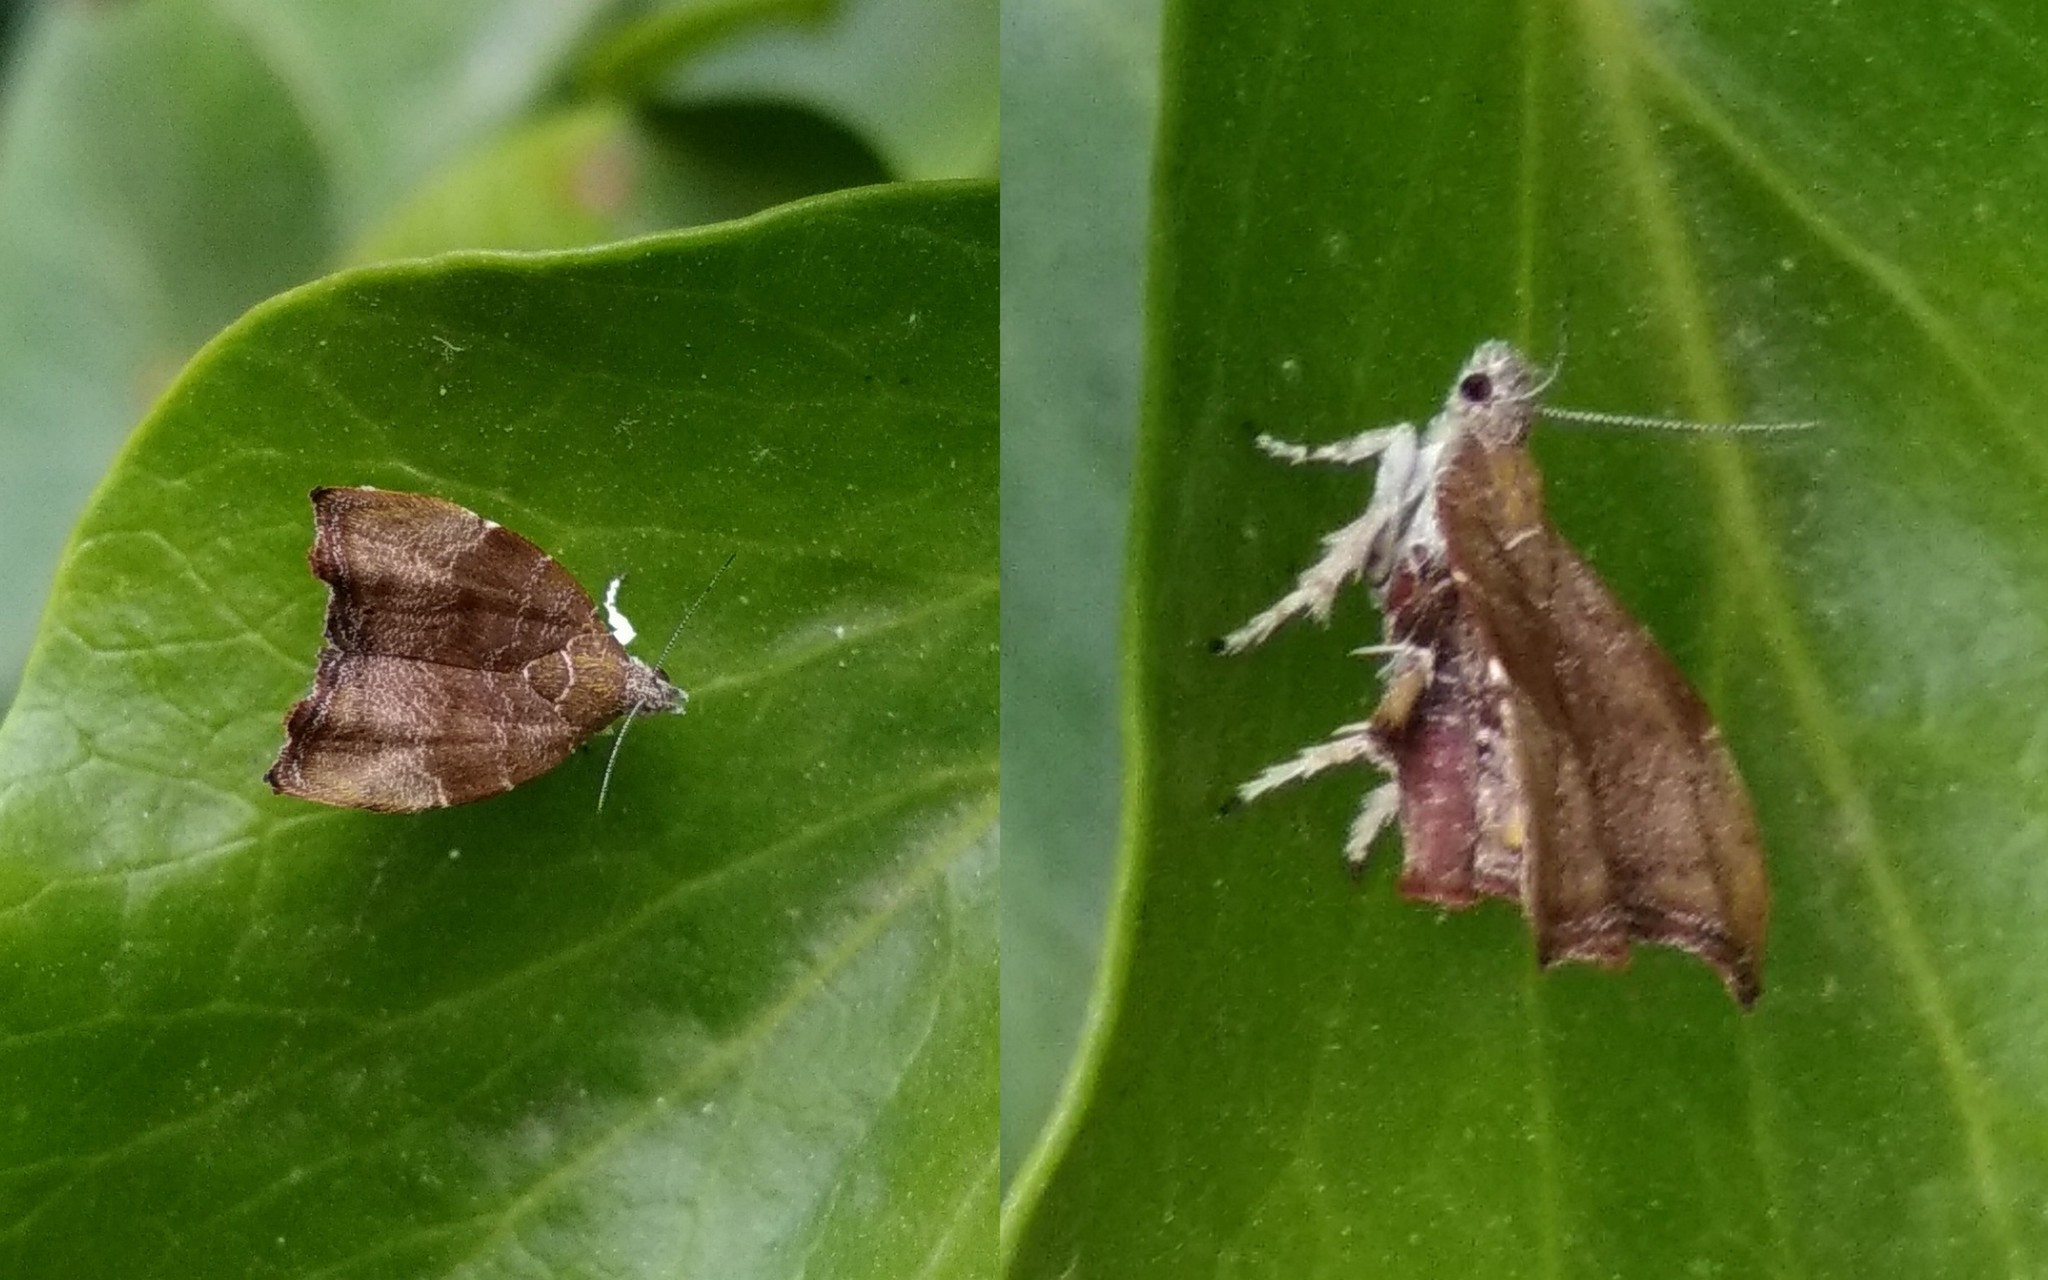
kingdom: Animalia
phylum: Arthropoda
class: Insecta
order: Lepidoptera
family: Choreutidae
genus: Anthophila
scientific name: Anthophila nemorana
